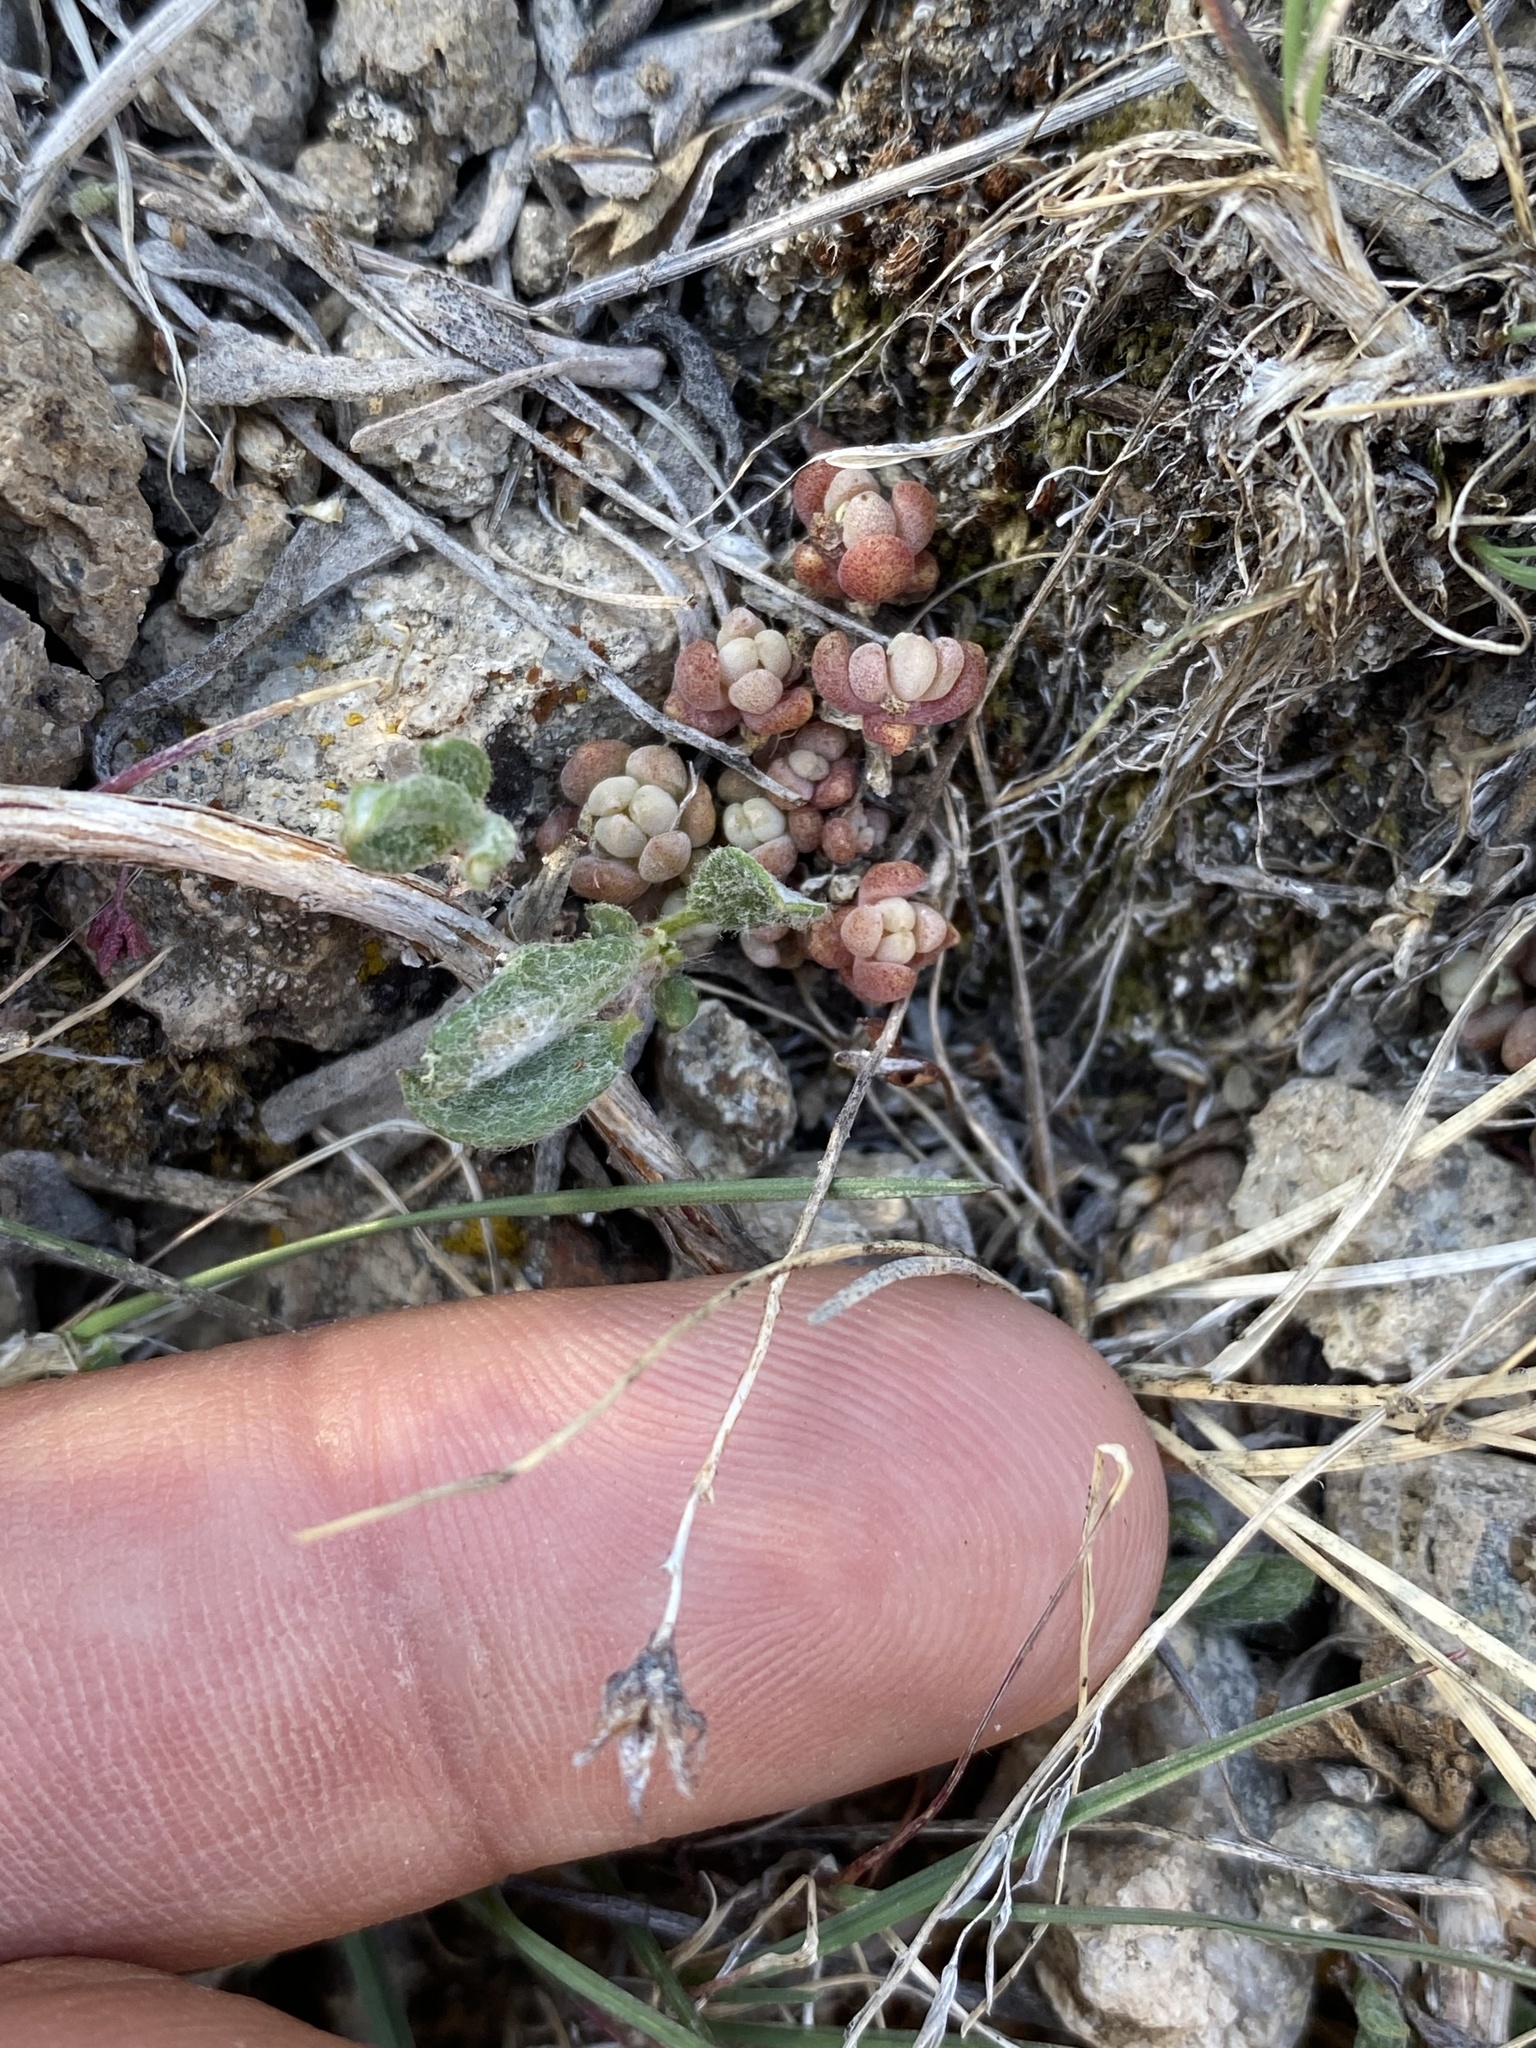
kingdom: Plantae
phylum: Tracheophyta
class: Magnoliopsida
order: Saxifragales
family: Crassulaceae
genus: Sedum
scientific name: Sedum debile
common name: Weak-stem stonecrop
